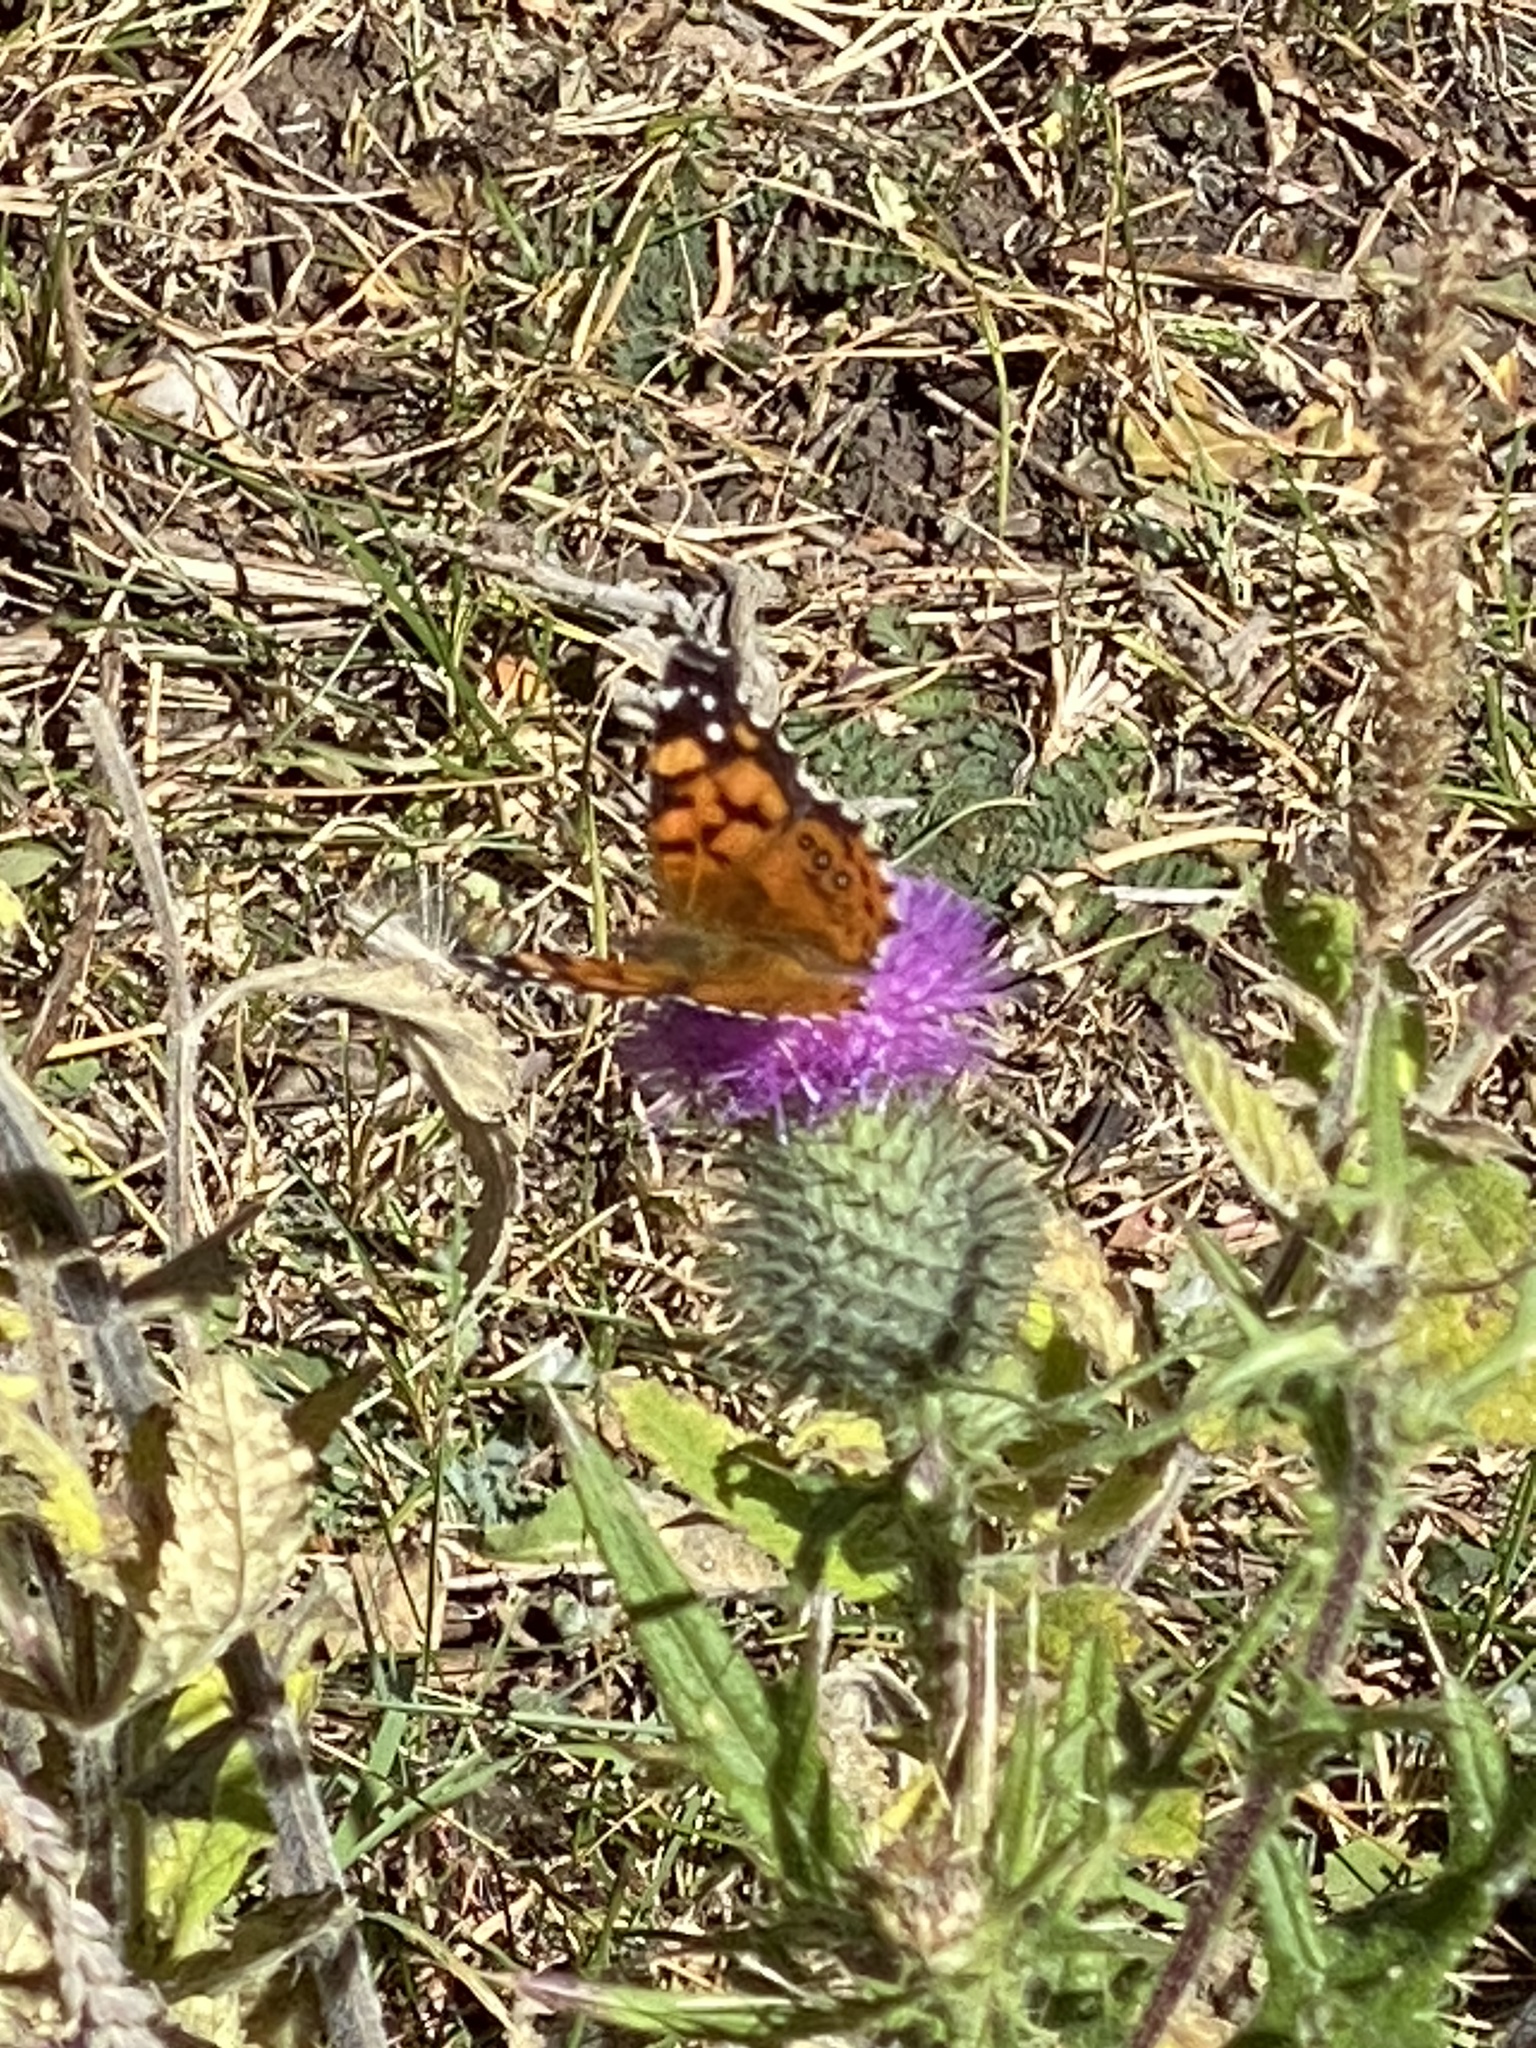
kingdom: Animalia
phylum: Arthropoda
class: Insecta
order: Lepidoptera
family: Nymphalidae
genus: Vanessa
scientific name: Vanessa annabella
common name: West coast lady
